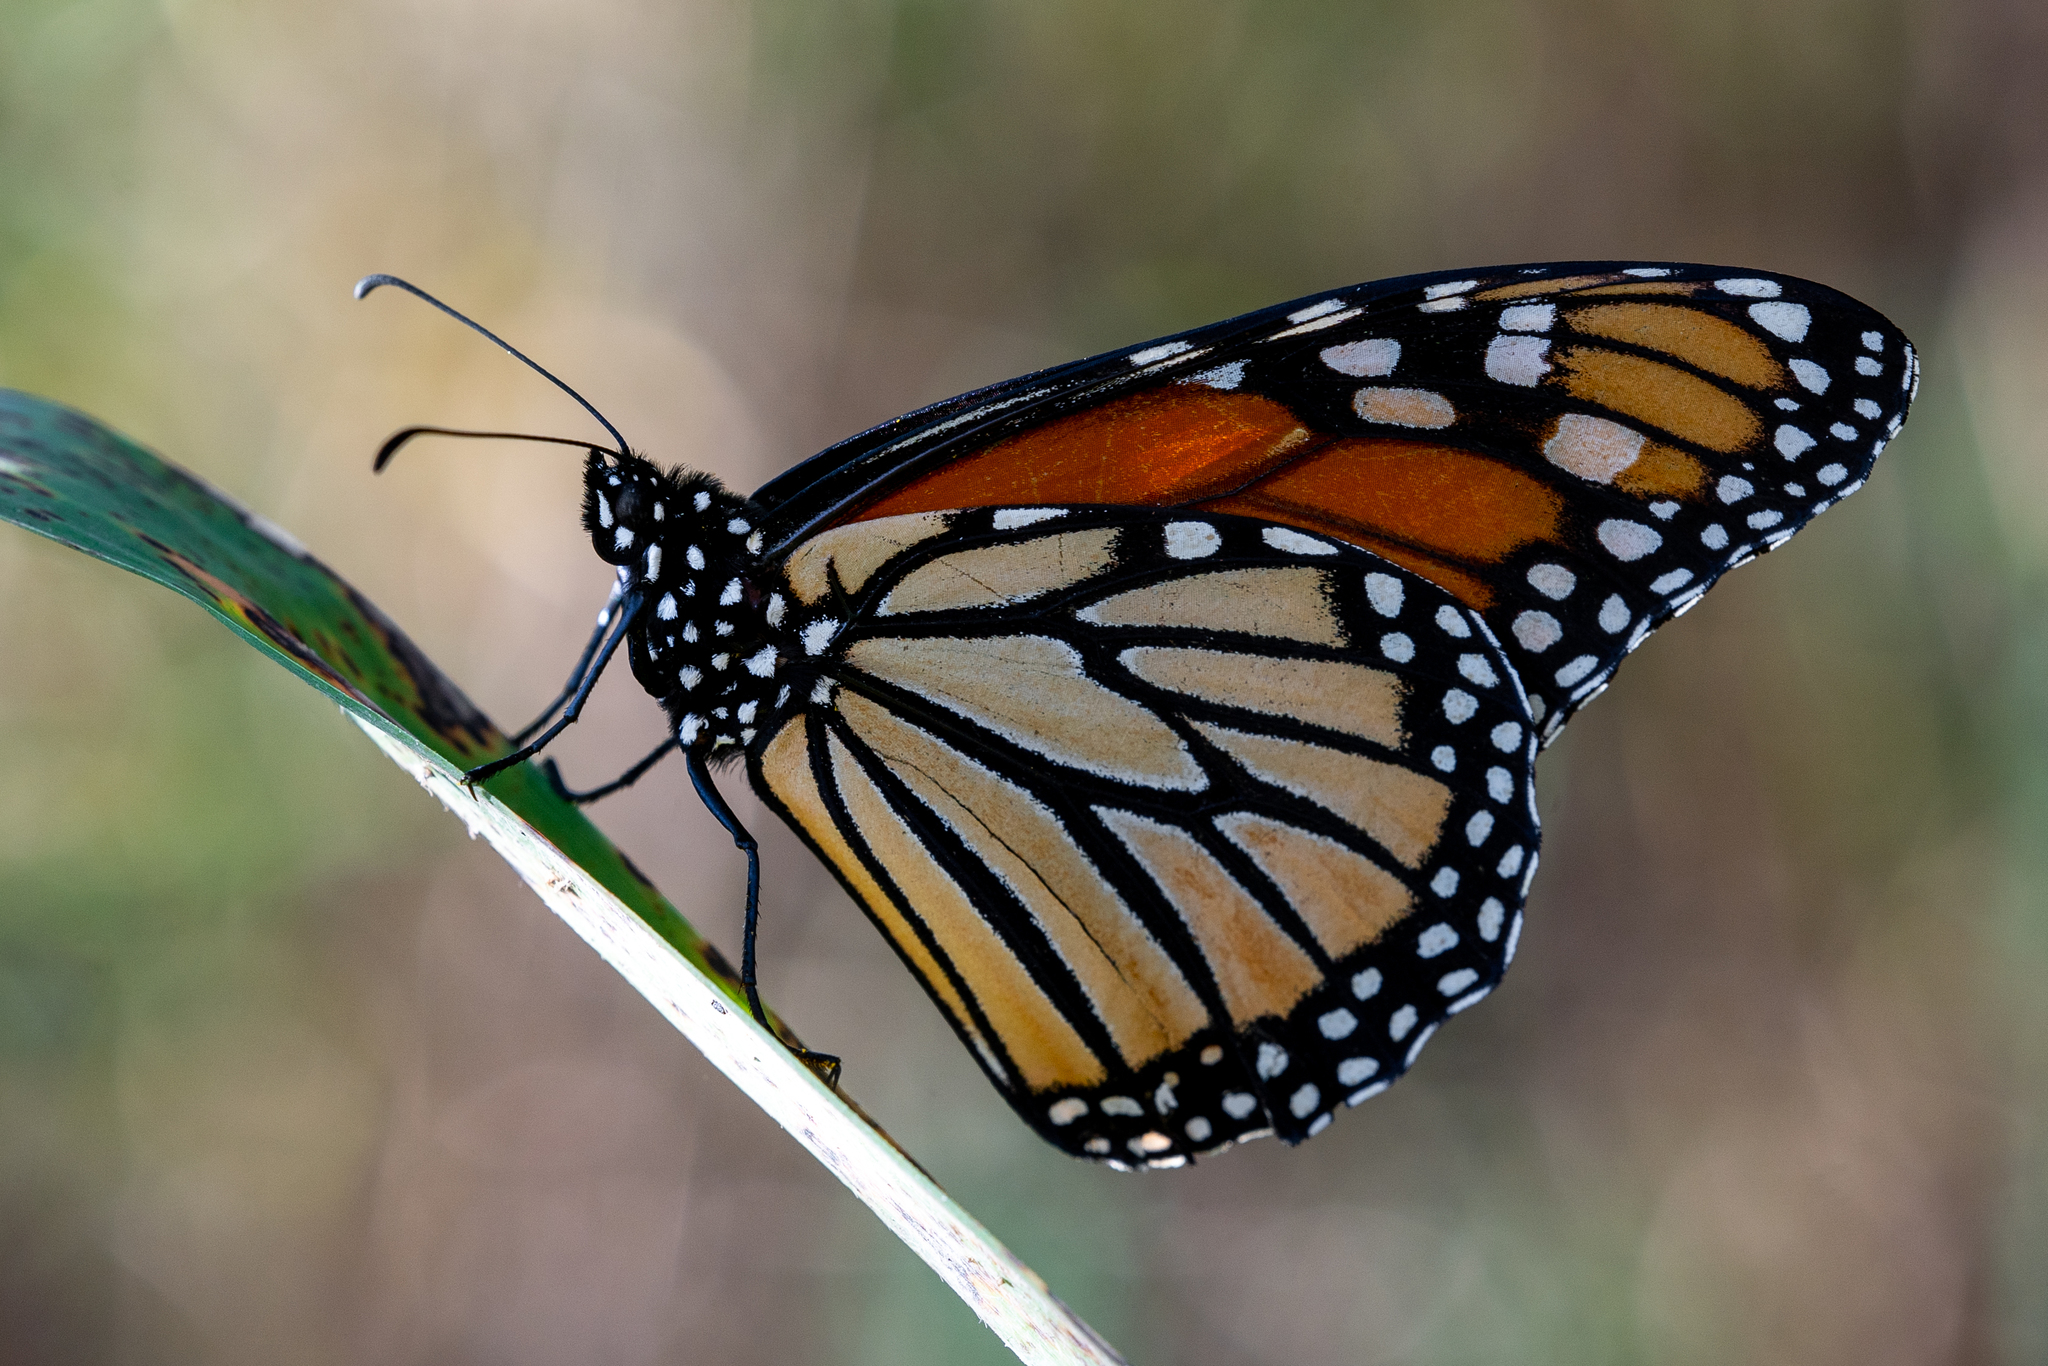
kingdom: Animalia
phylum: Arthropoda
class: Insecta
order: Lepidoptera
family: Nymphalidae
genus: Danaus
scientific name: Danaus plexippus
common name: Monarch
